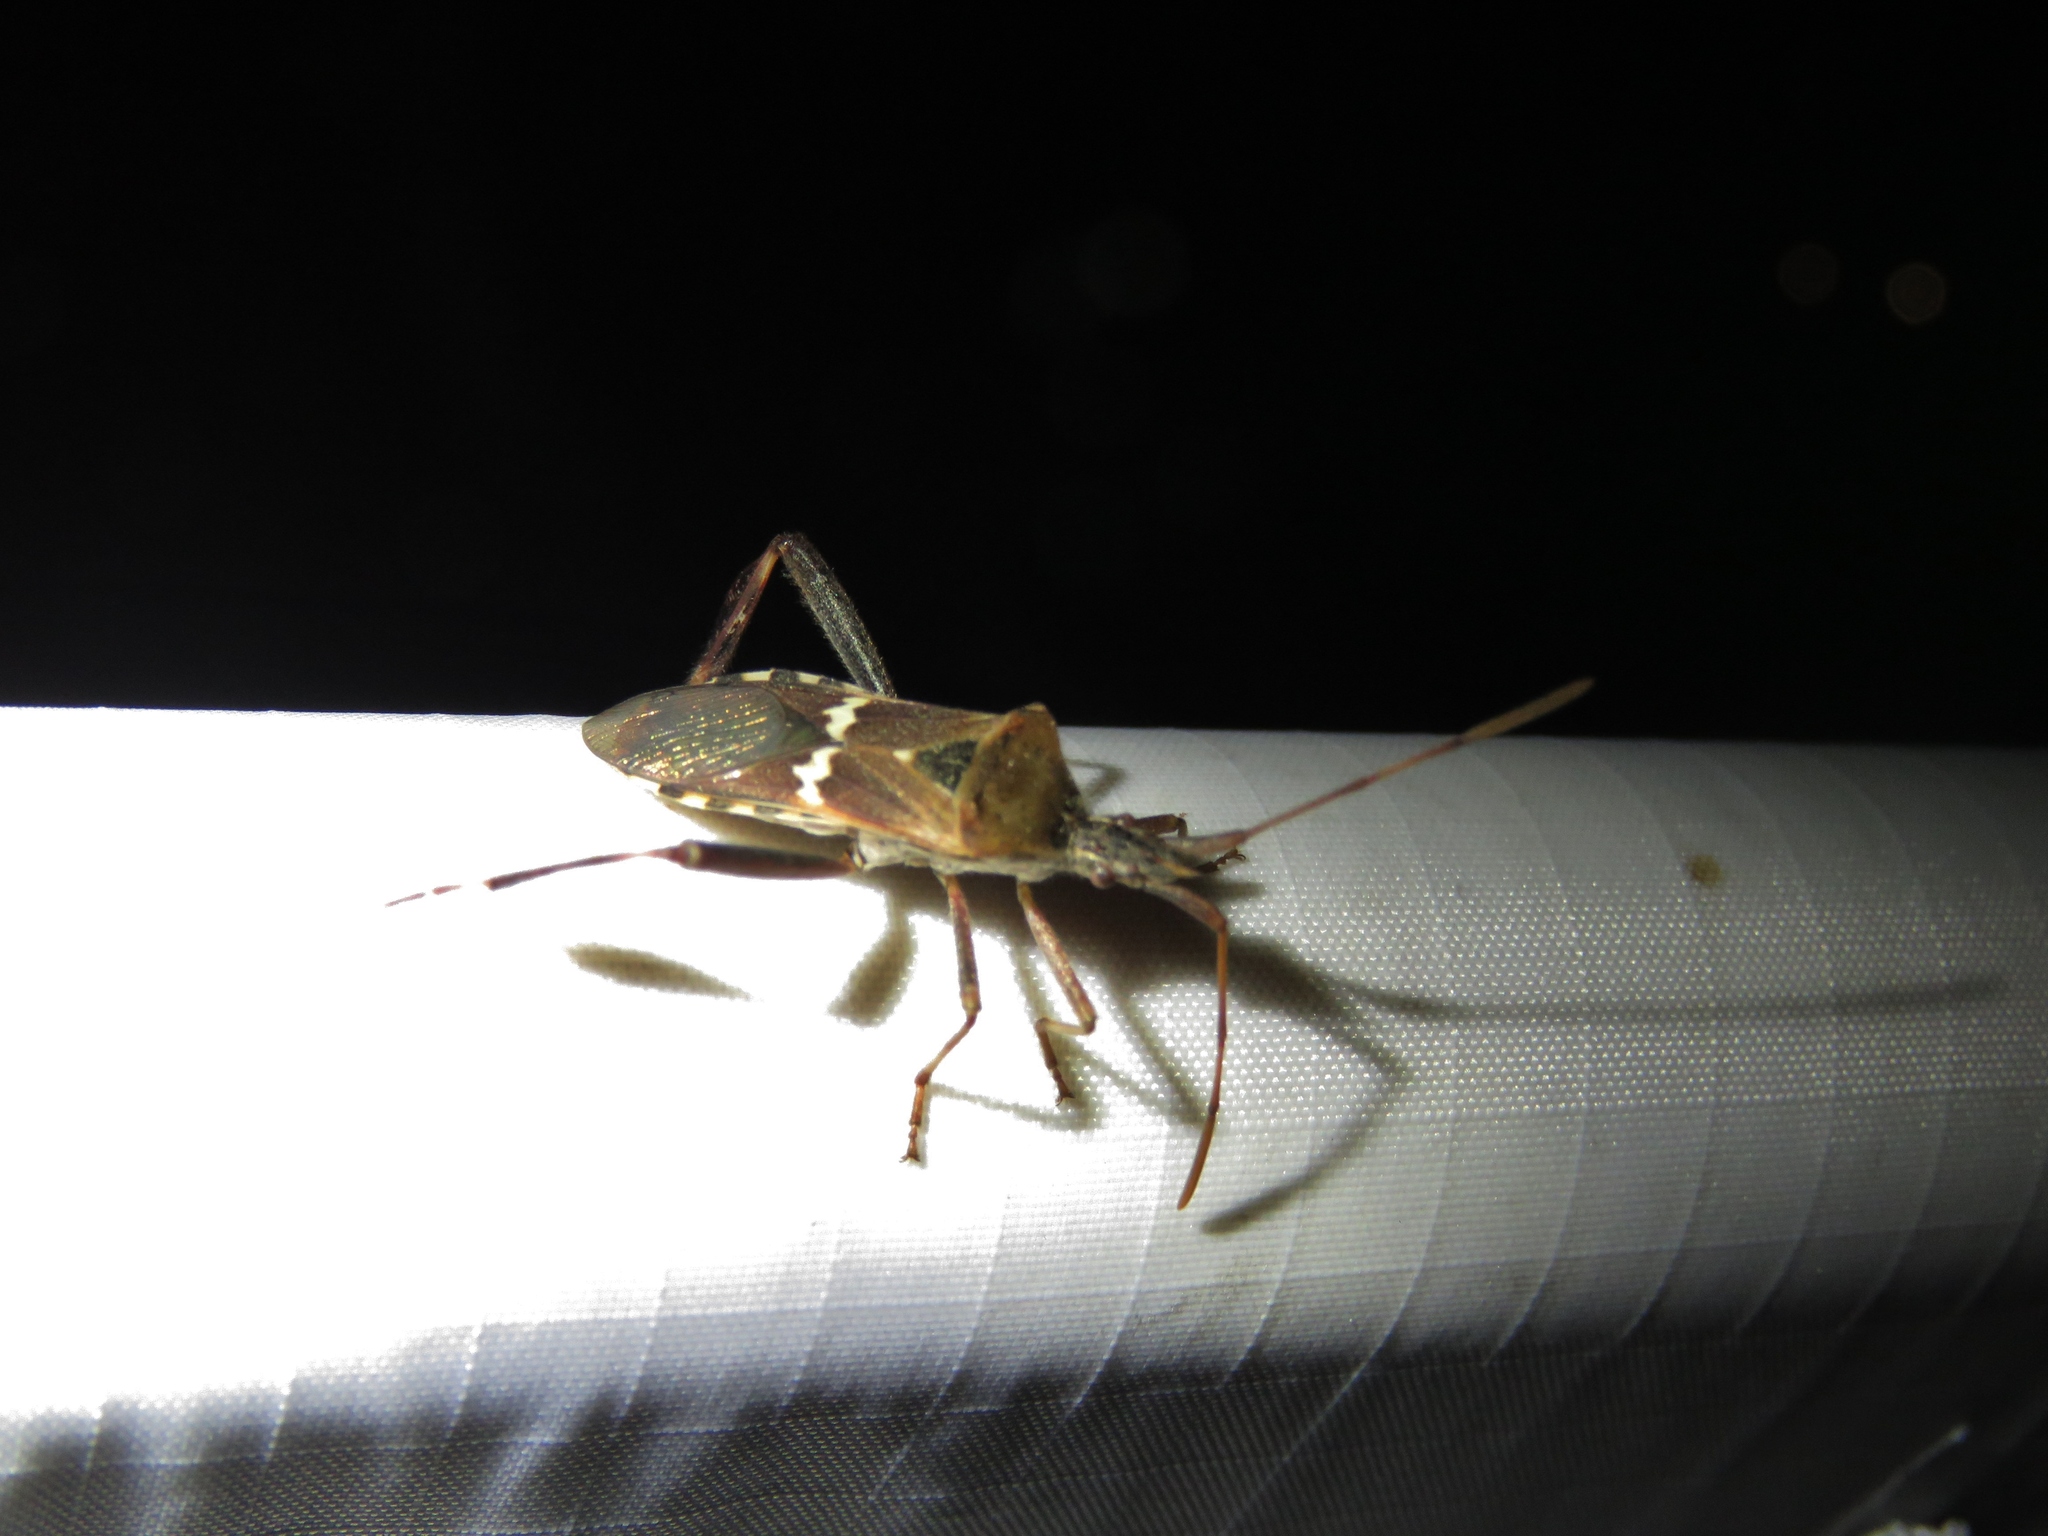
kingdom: Animalia
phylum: Arthropoda
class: Insecta
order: Hemiptera
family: Coreidae
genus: Leptoglossus
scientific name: Leptoglossus clypealis
